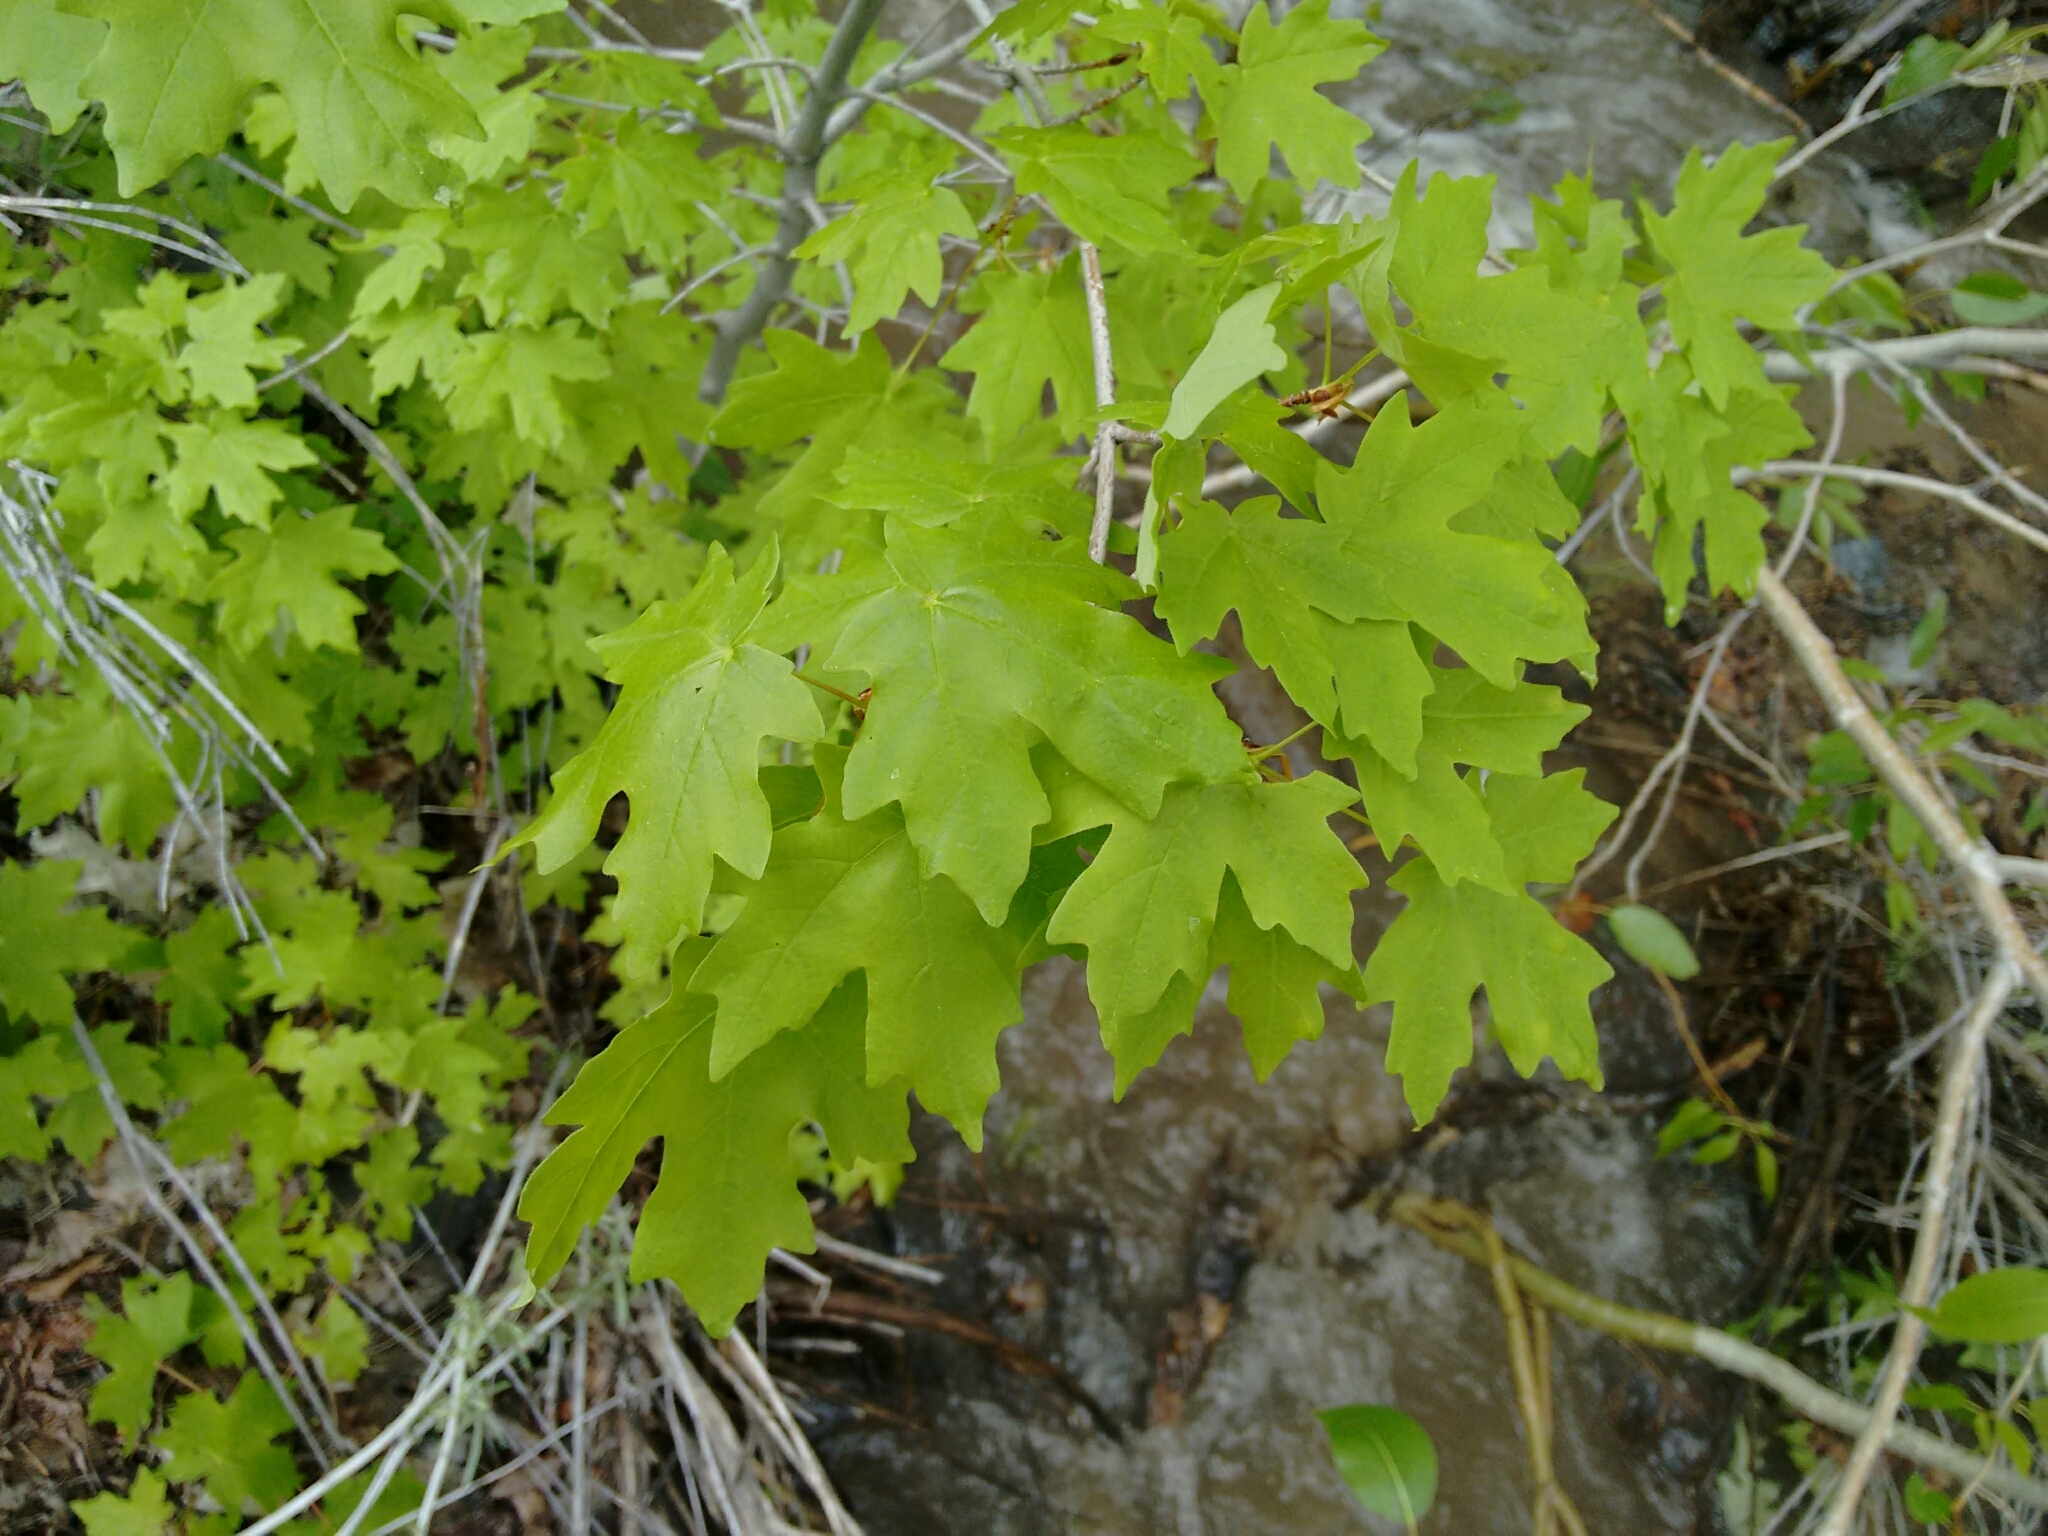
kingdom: Plantae
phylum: Tracheophyta
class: Magnoliopsida
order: Sapindales
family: Sapindaceae
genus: Acer
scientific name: Acer grandidentatum
